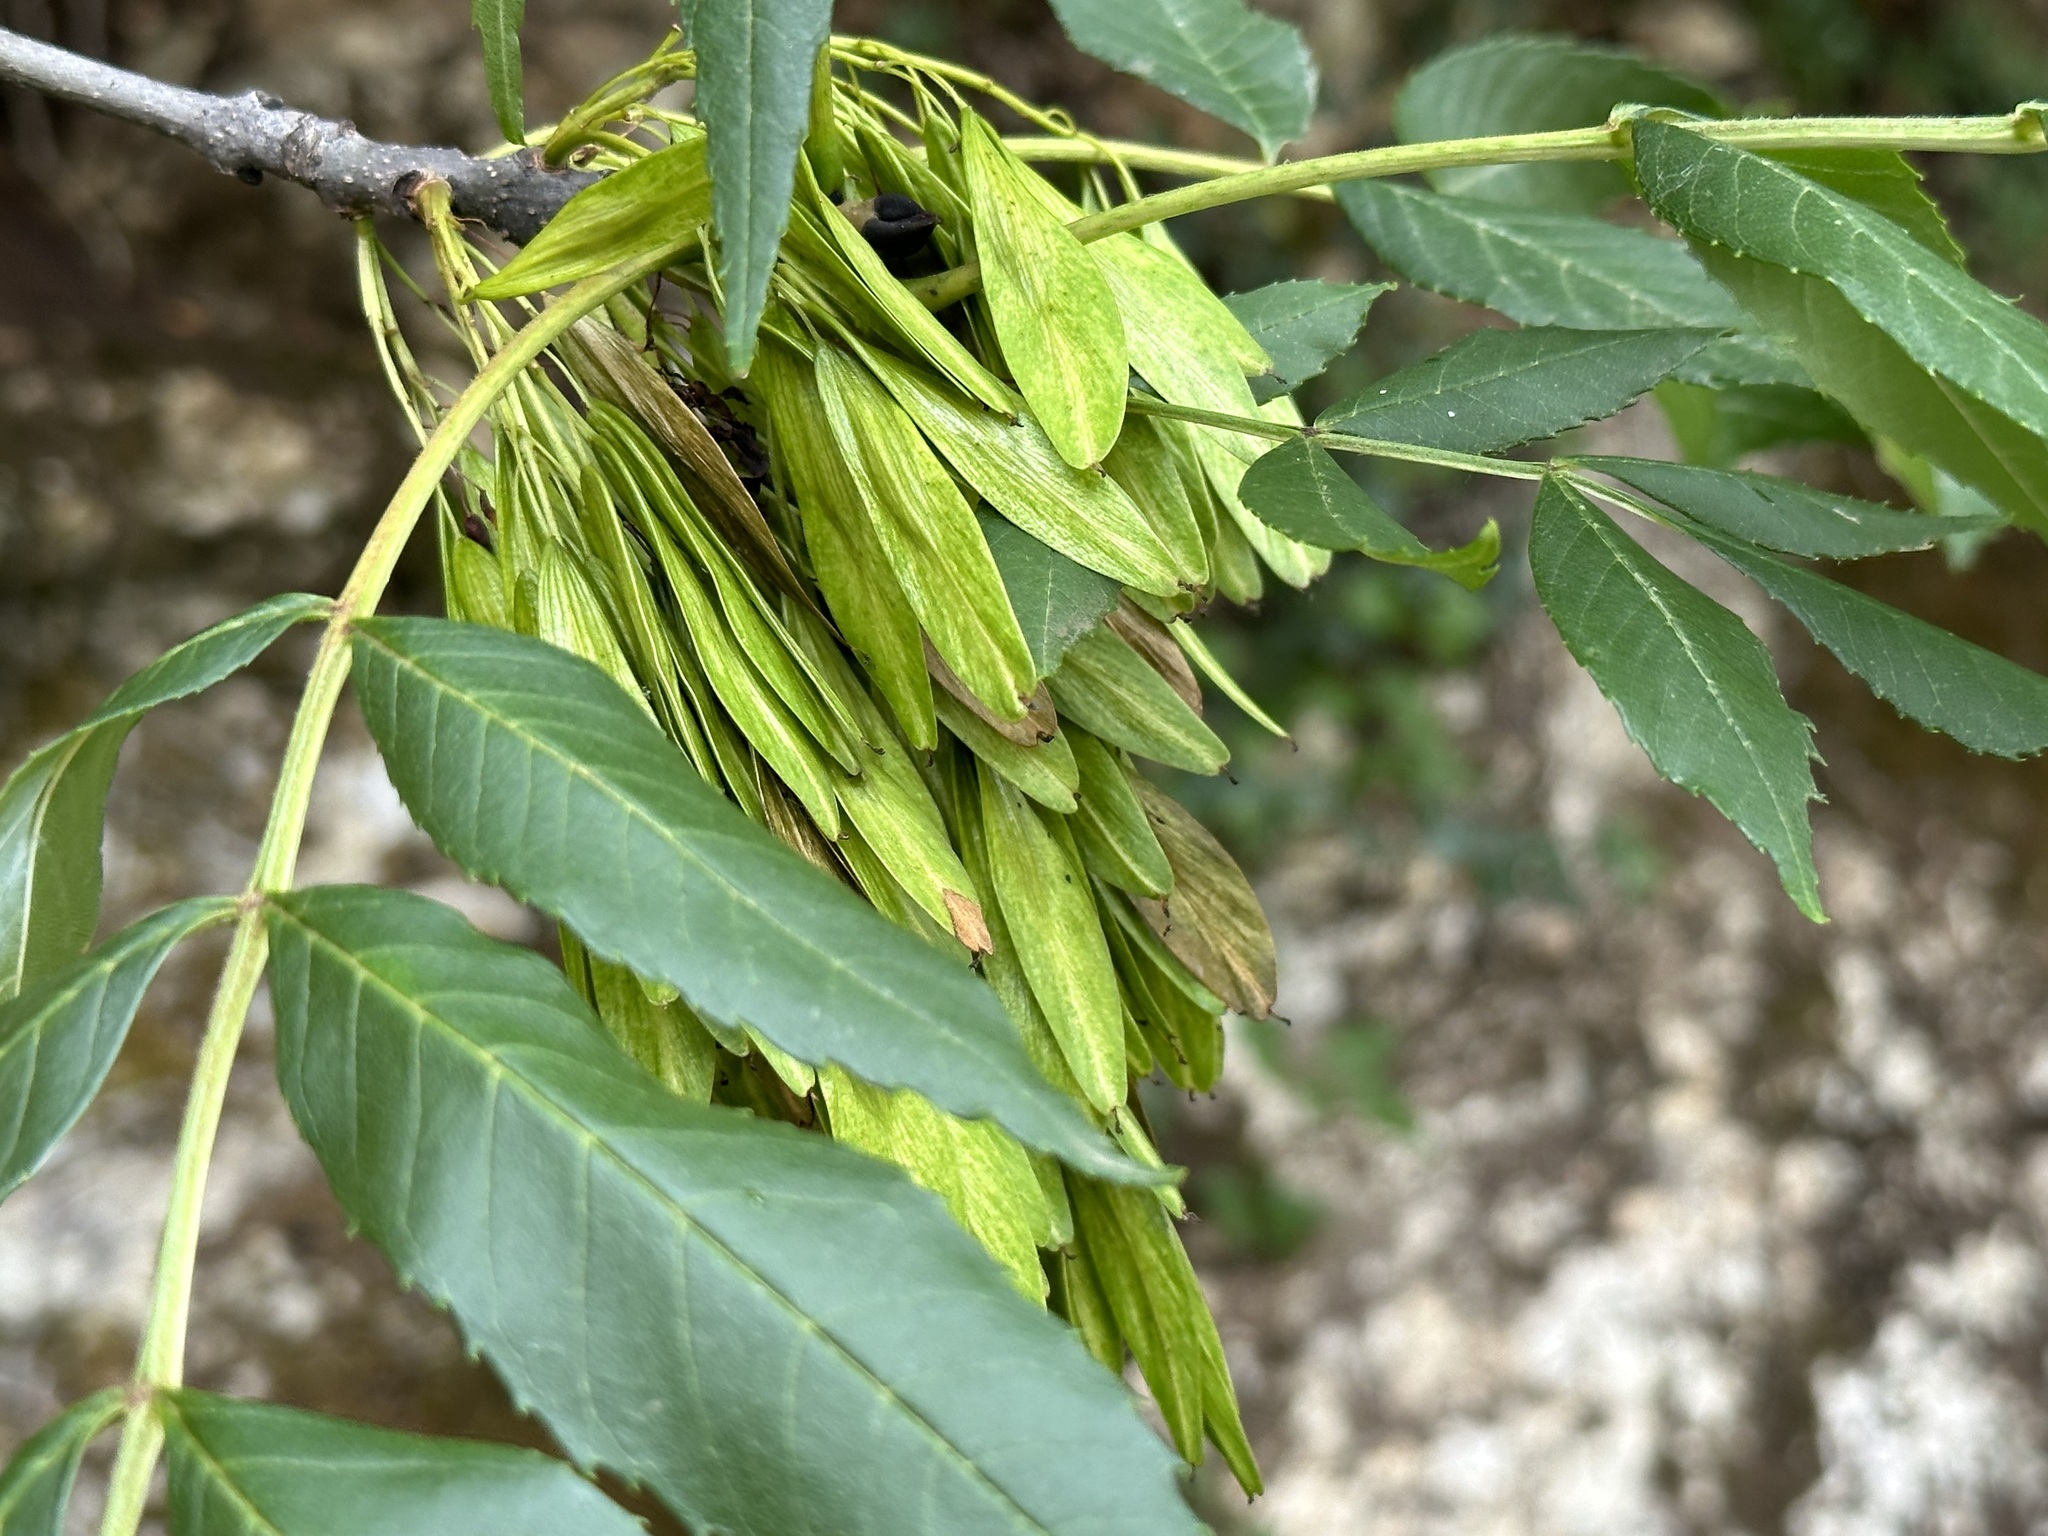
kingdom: Plantae
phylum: Tracheophyta
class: Magnoliopsida
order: Lamiales
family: Oleaceae
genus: Fraxinus
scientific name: Fraxinus excelsior
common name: European ash
